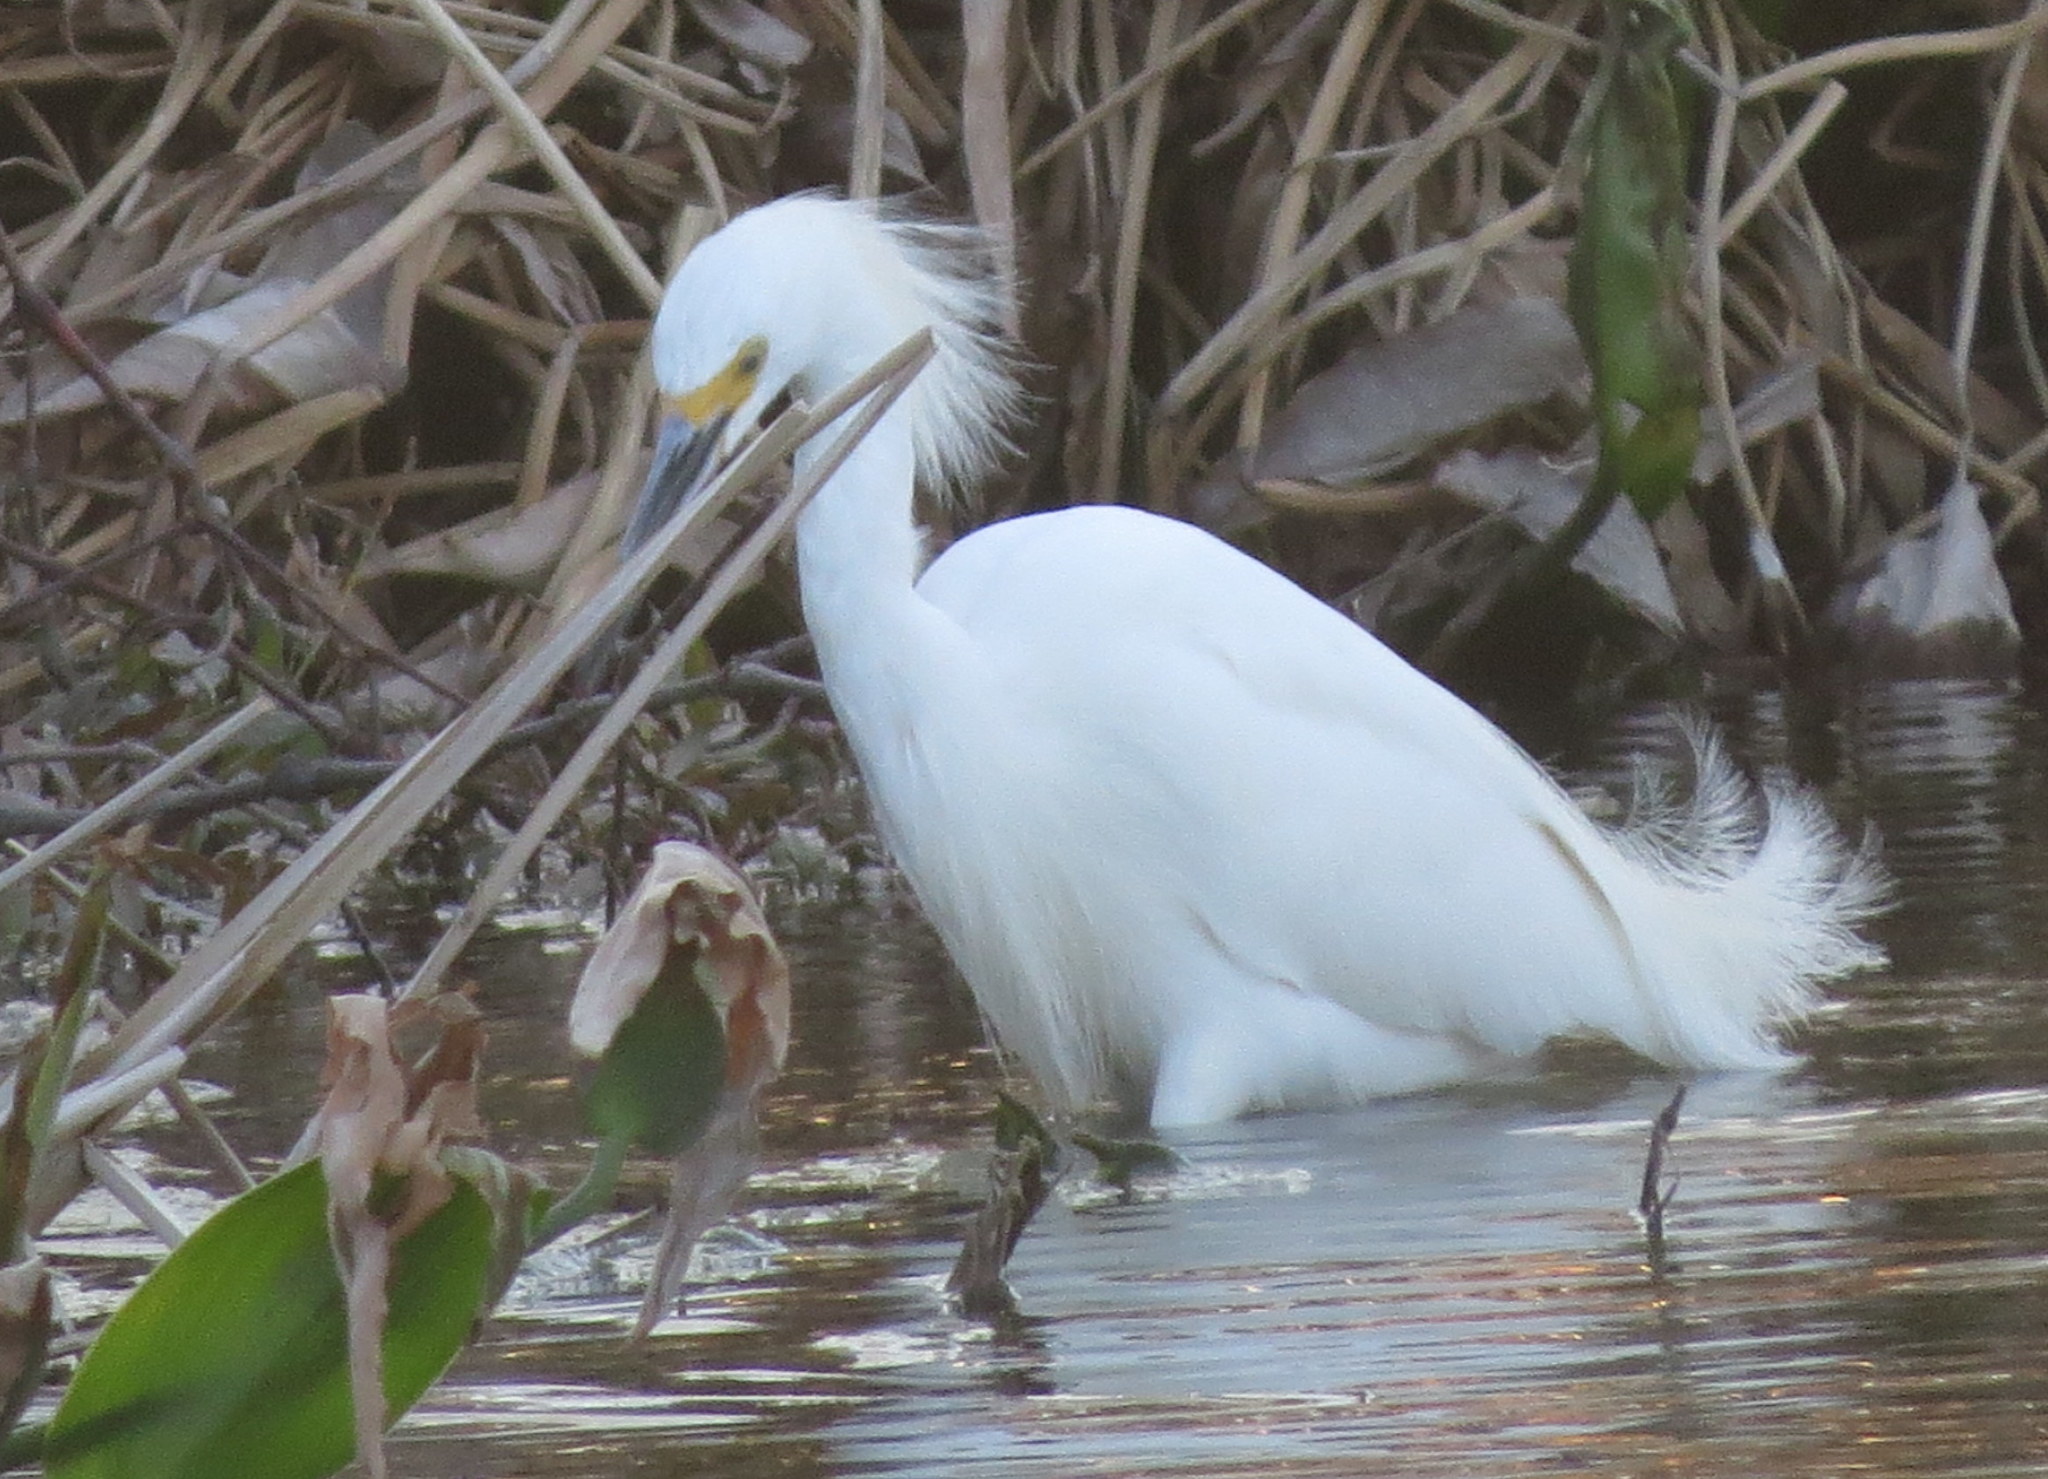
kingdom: Animalia
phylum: Chordata
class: Aves
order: Pelecaniformes
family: Ardeidae
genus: Egretta
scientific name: Egretta thula
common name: Snowy egret
